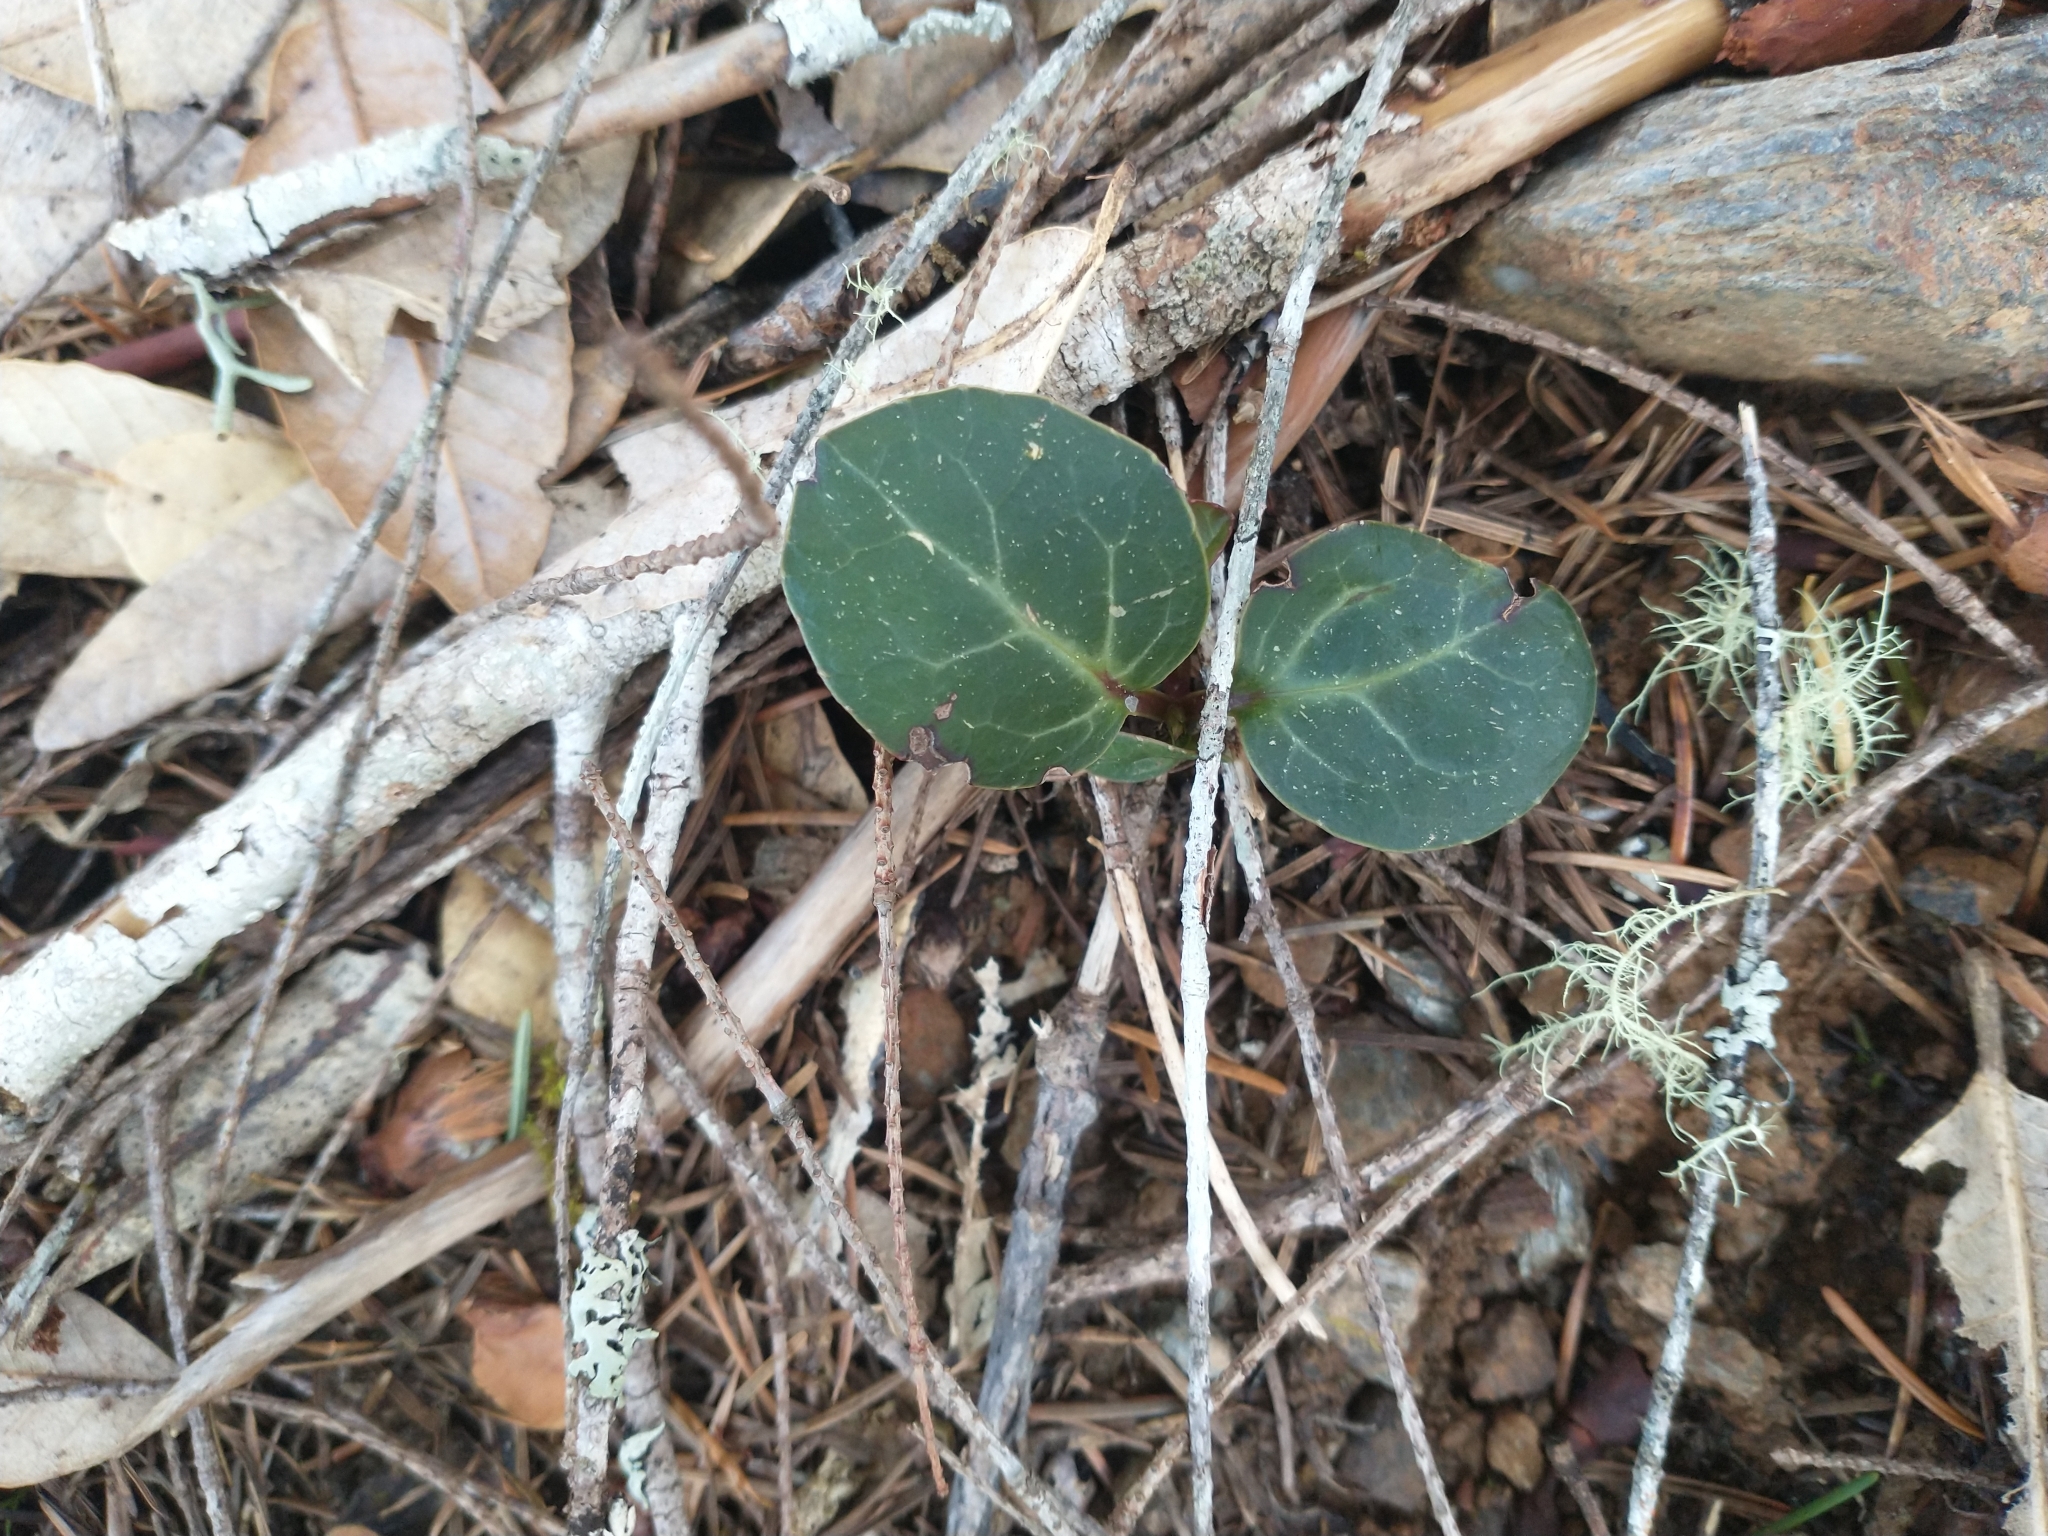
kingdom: Plantae
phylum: Tracheophyta
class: Magnoliopsida
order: Ericales
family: Ericaceae
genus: Pyrola
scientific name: Pyrola picta
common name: White-vein wintergreen
